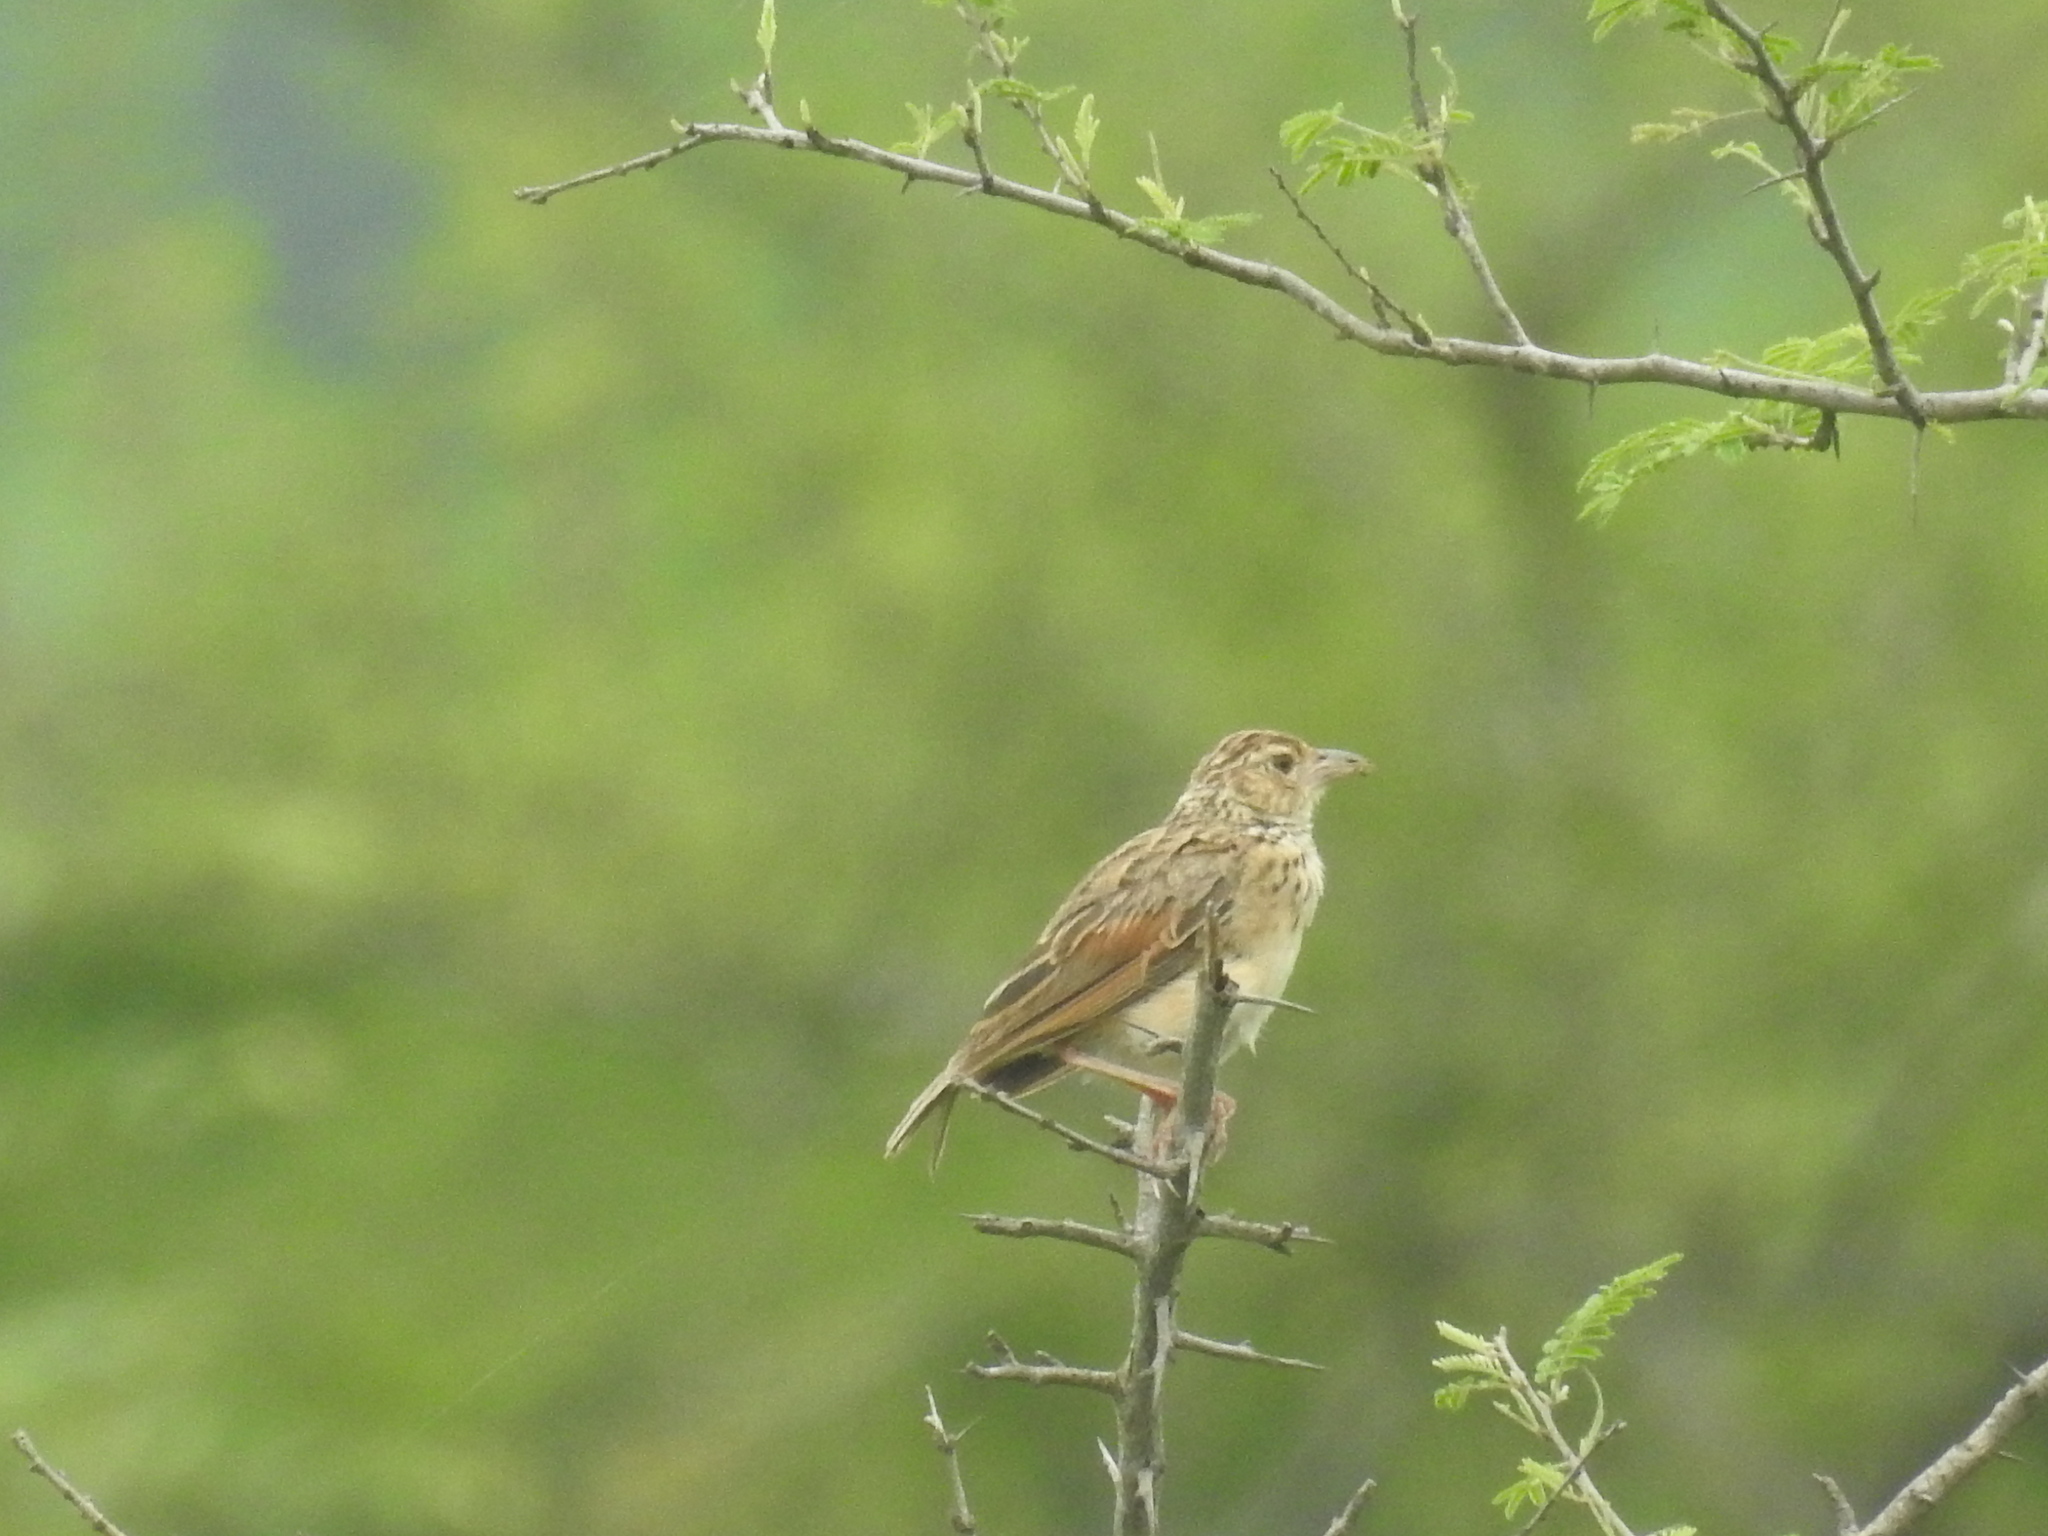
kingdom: Animalia
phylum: Chordata
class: Aves
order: Passeriformes
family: Alaudidae
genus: Mirafra
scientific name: Mirafra affinis
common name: Jerdon's bushlark
